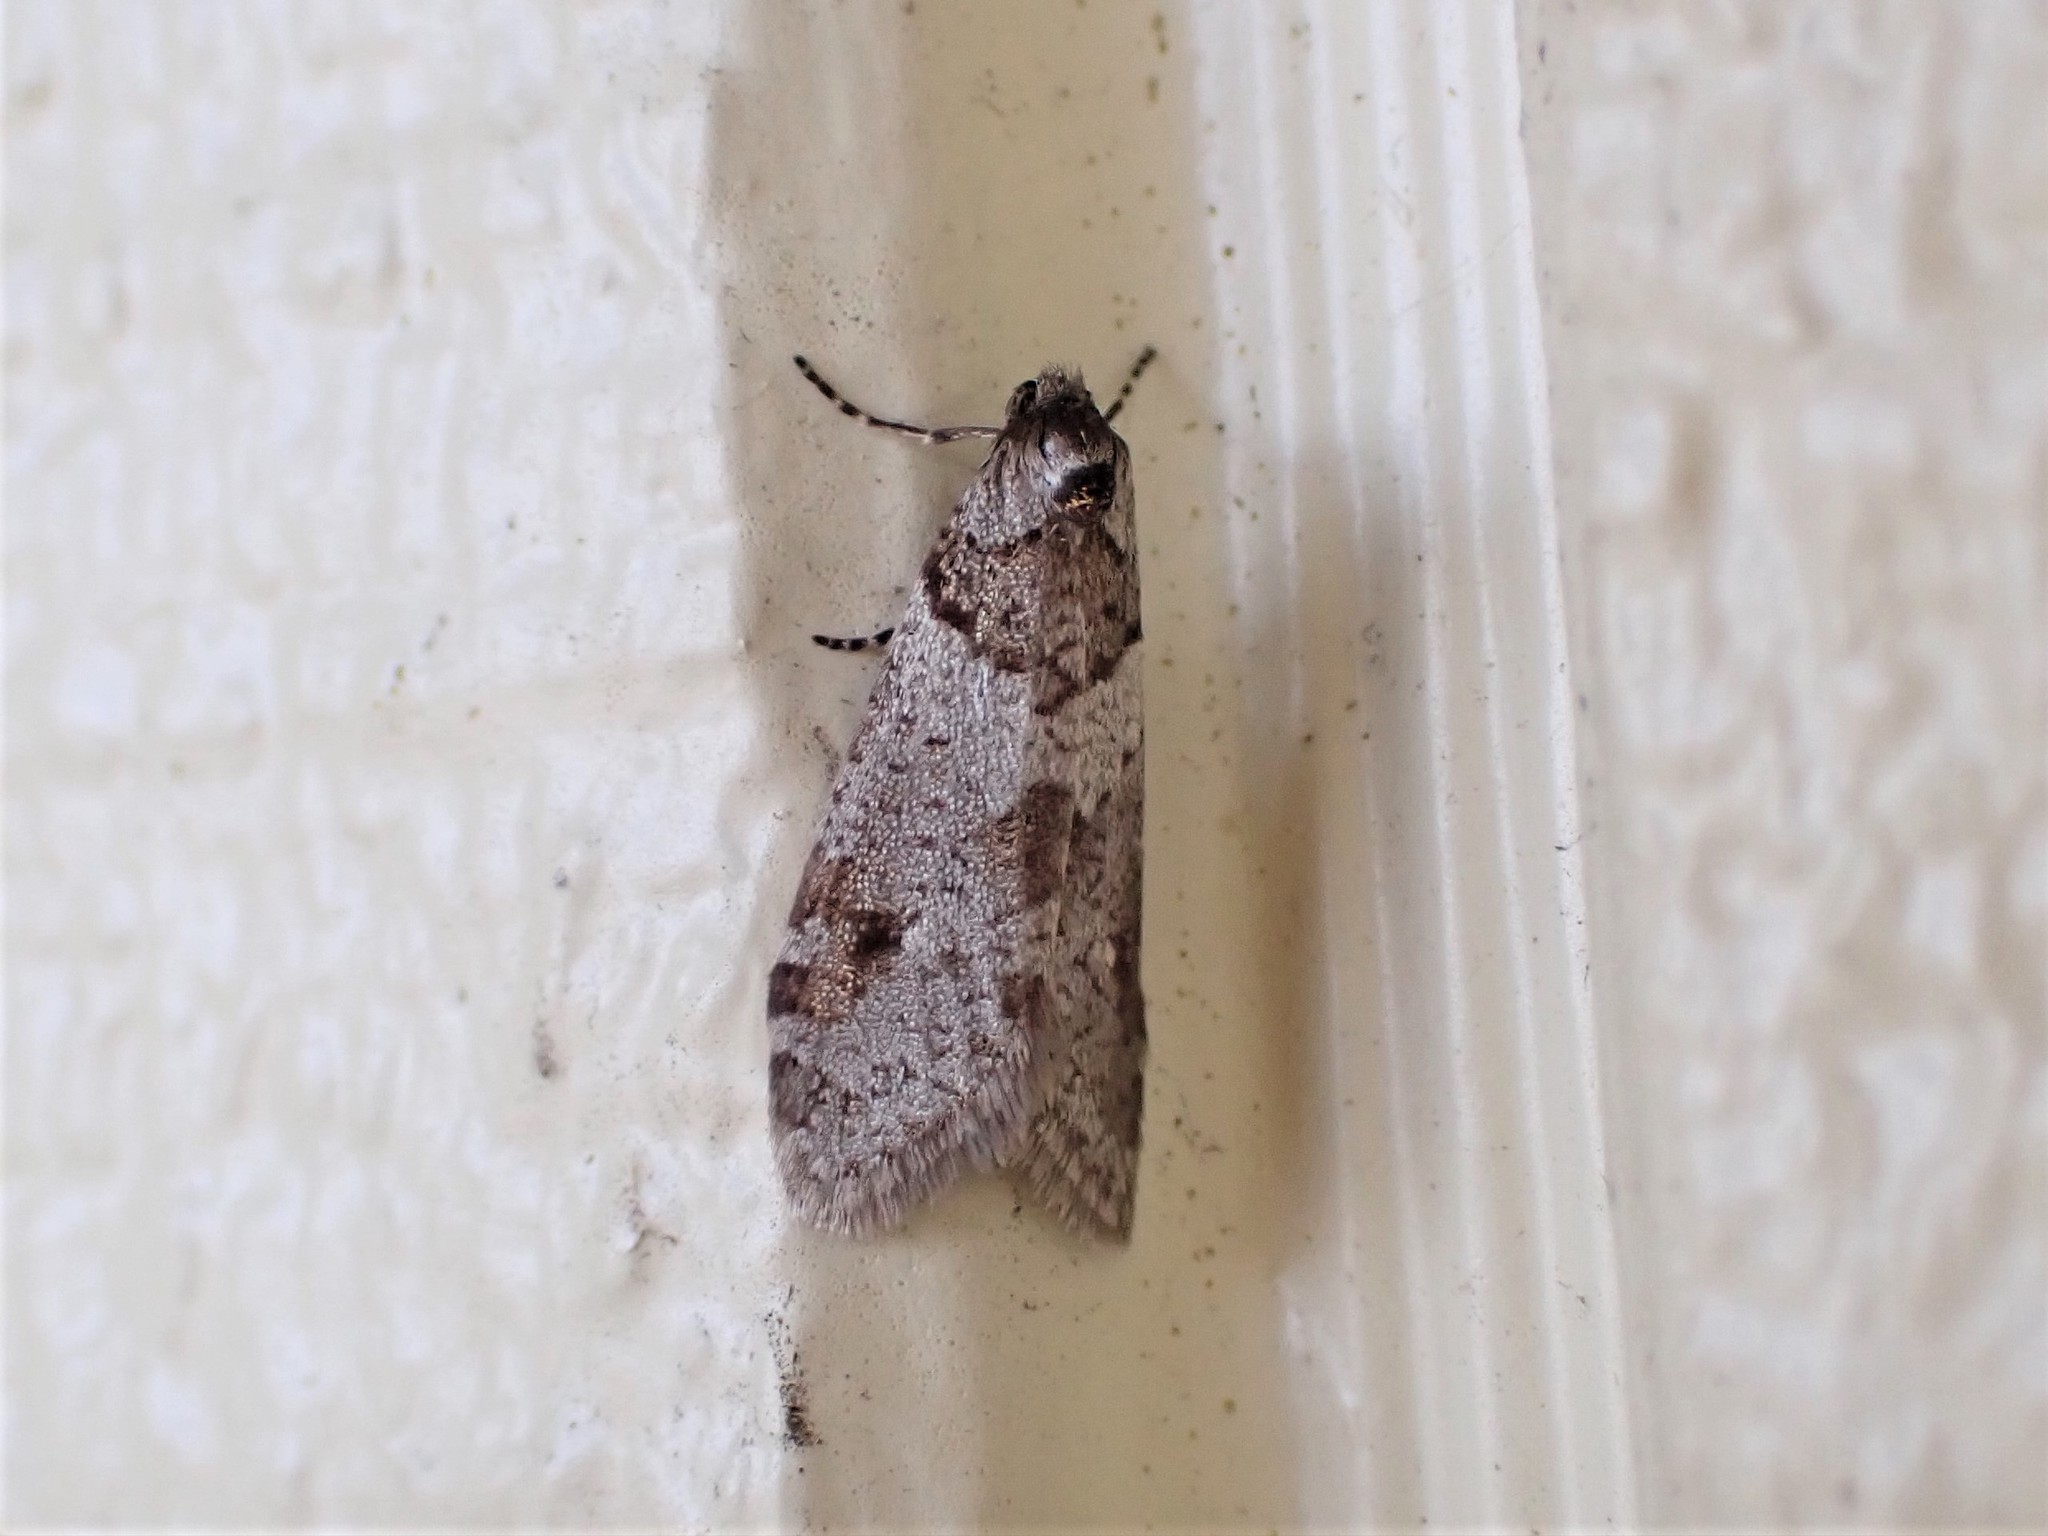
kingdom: Animalia
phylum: Arthropoda
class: Insecta
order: Lepidoptera
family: Psychidae
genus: Lepidoscia
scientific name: Lepidoscia heliochares
